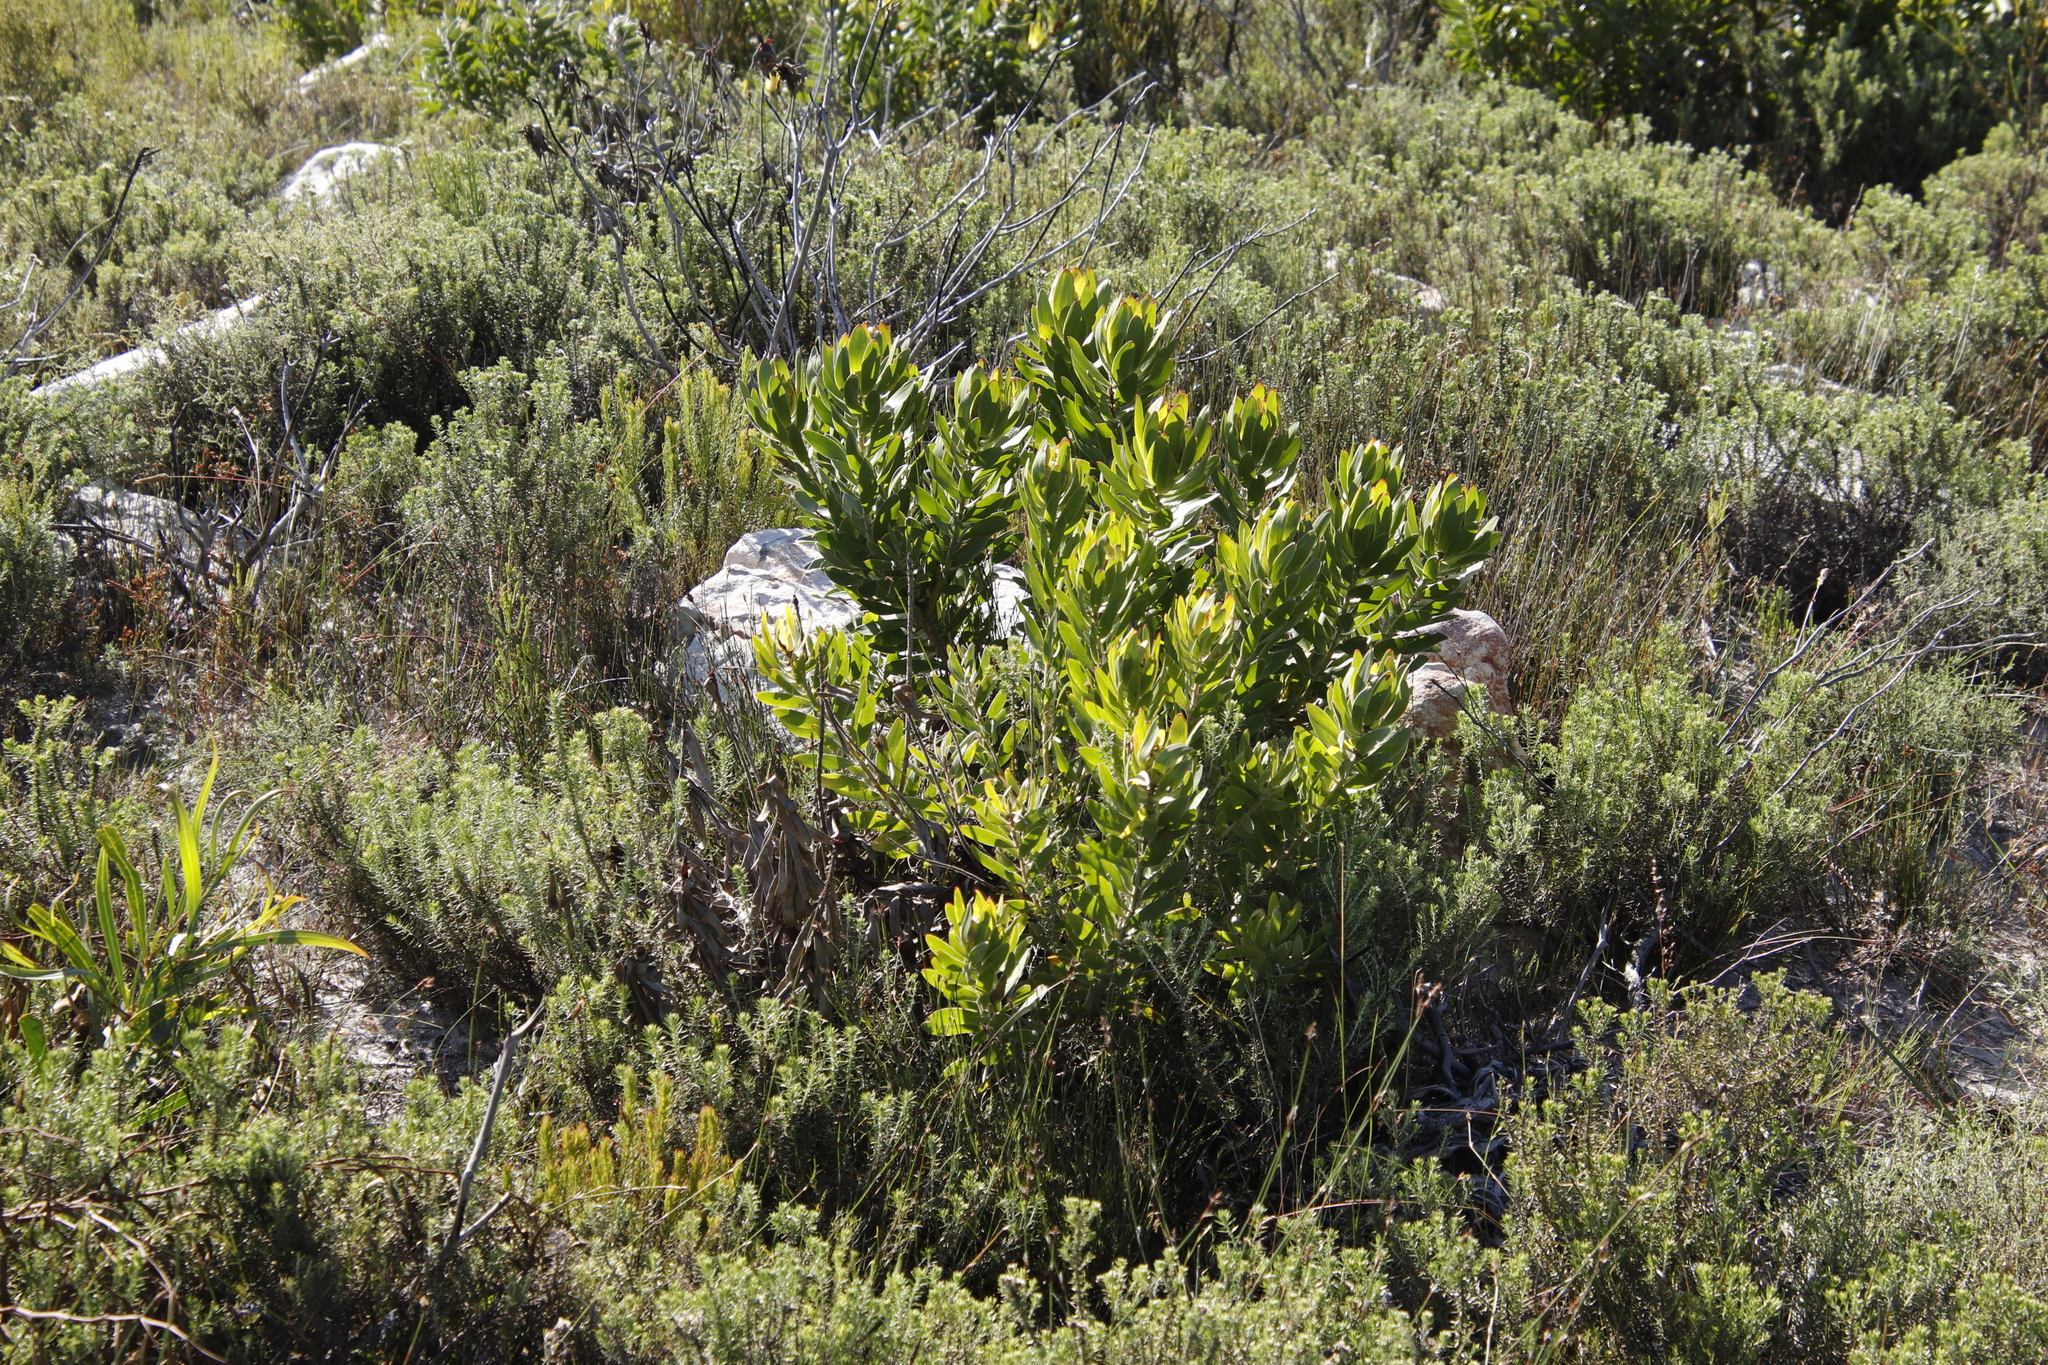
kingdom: Plantae
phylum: Tracheophyta
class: Magnoliopsida
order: Proteales
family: Proteaceae
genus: Leucadendron
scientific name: Leucadendron laureolum
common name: Golden sunshinebush
